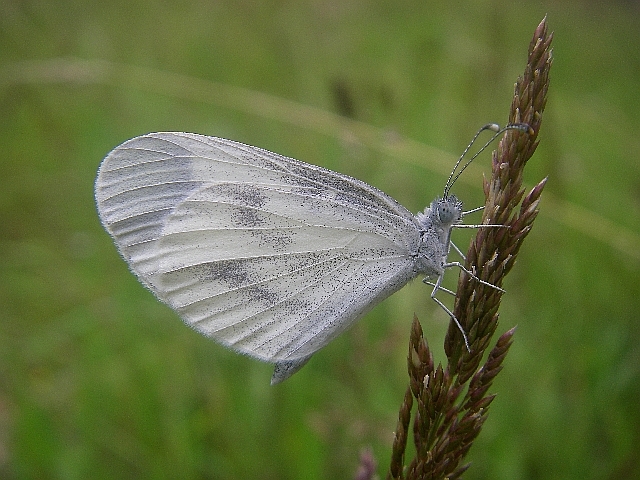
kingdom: Animalia
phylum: Arthropoda
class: Insecta
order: Lepidoptera
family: Pieridae
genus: Leptidea
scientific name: Leptidea
